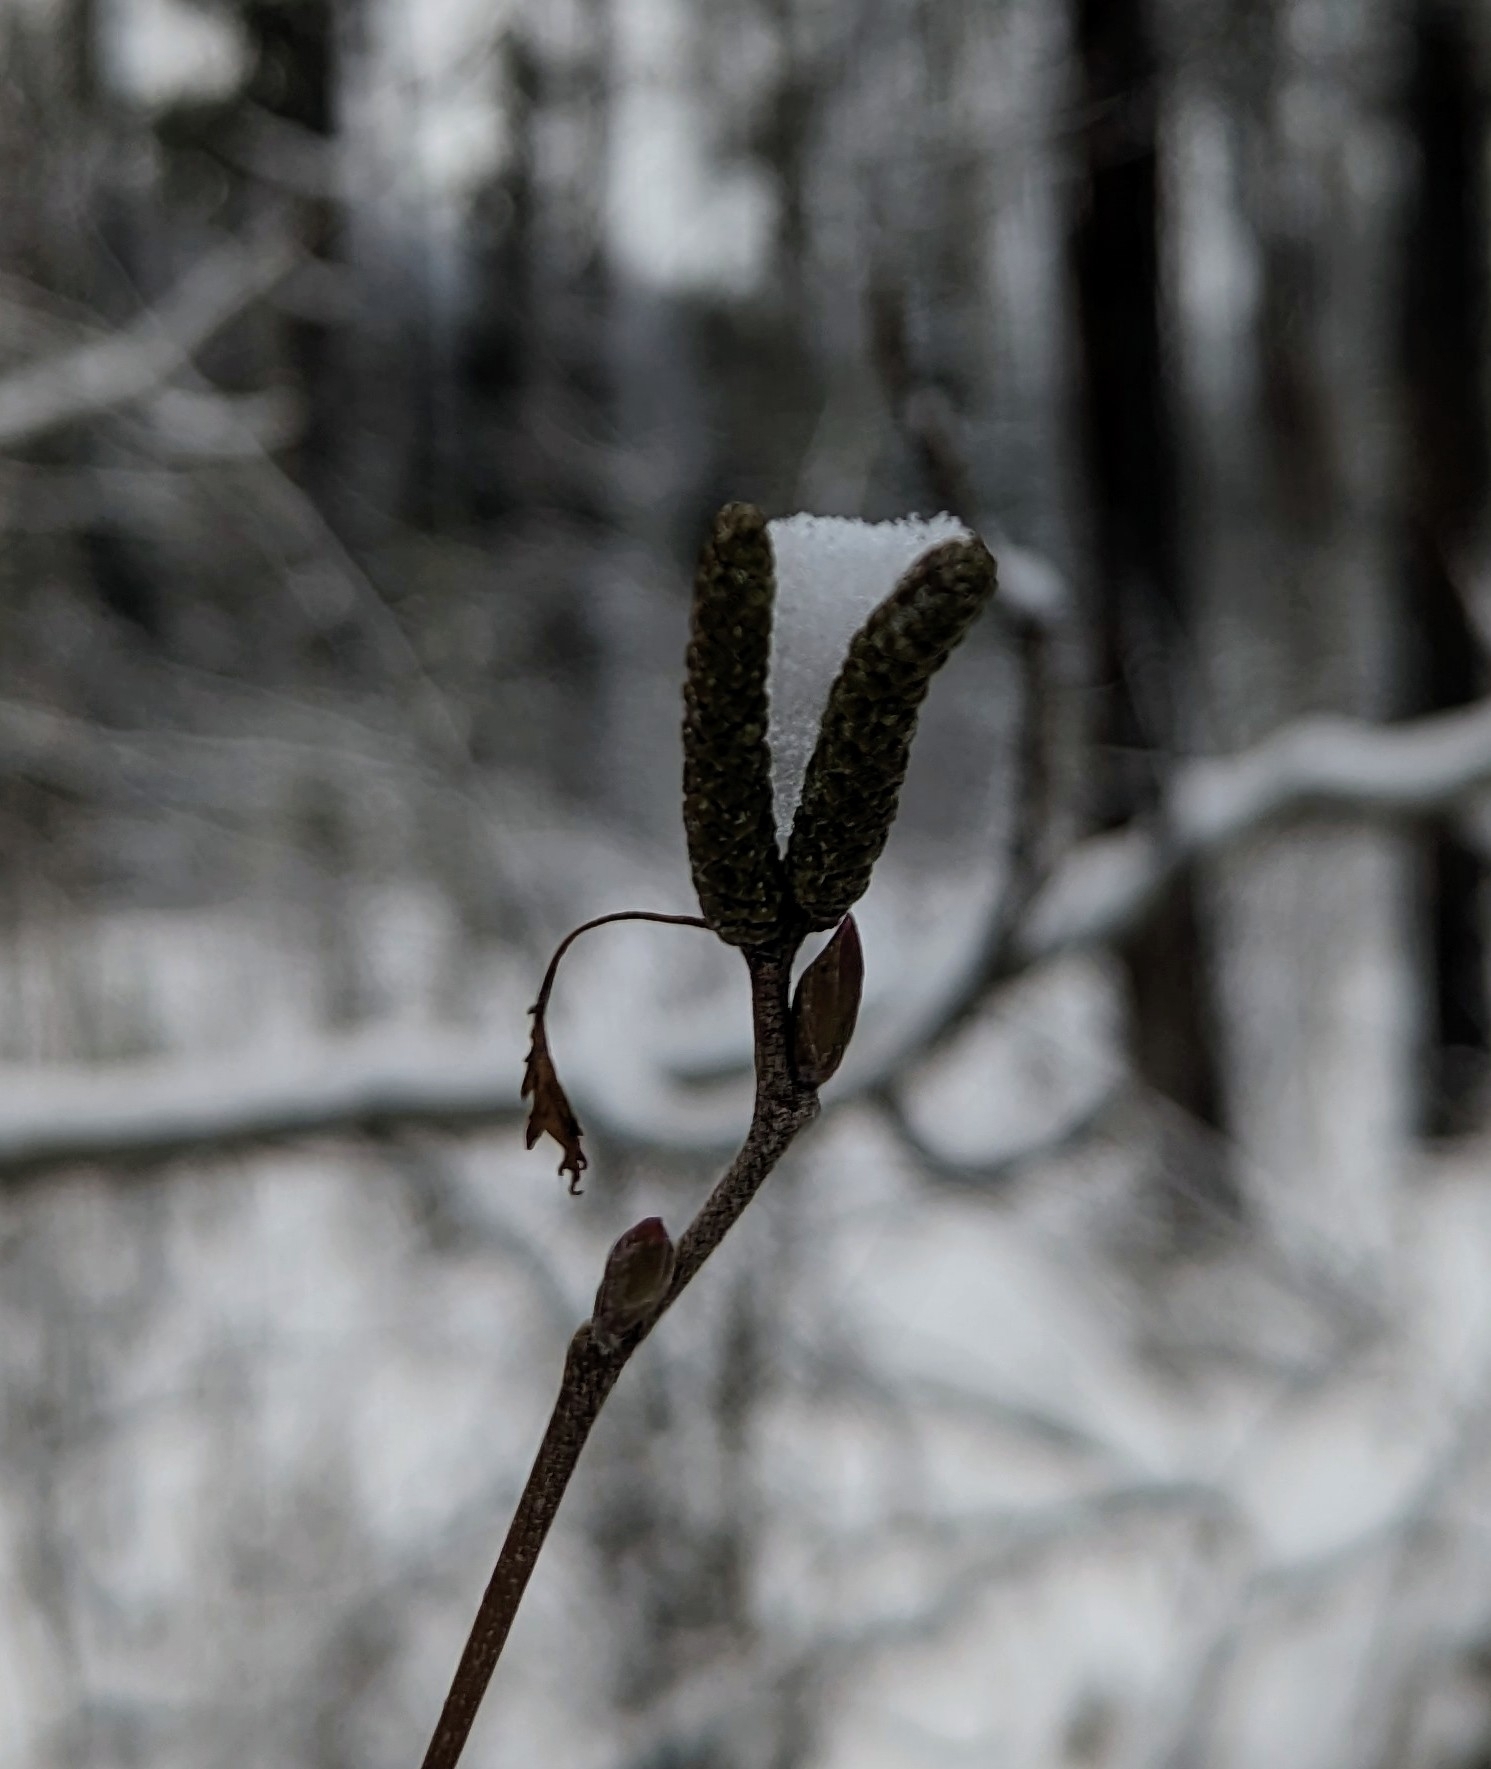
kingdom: Plantae
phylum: Tracheophyta
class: Magnoliopsida
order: Fagales
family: Betulaceae
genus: Alnus
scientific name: Alnus alnobetula
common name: Green alder
